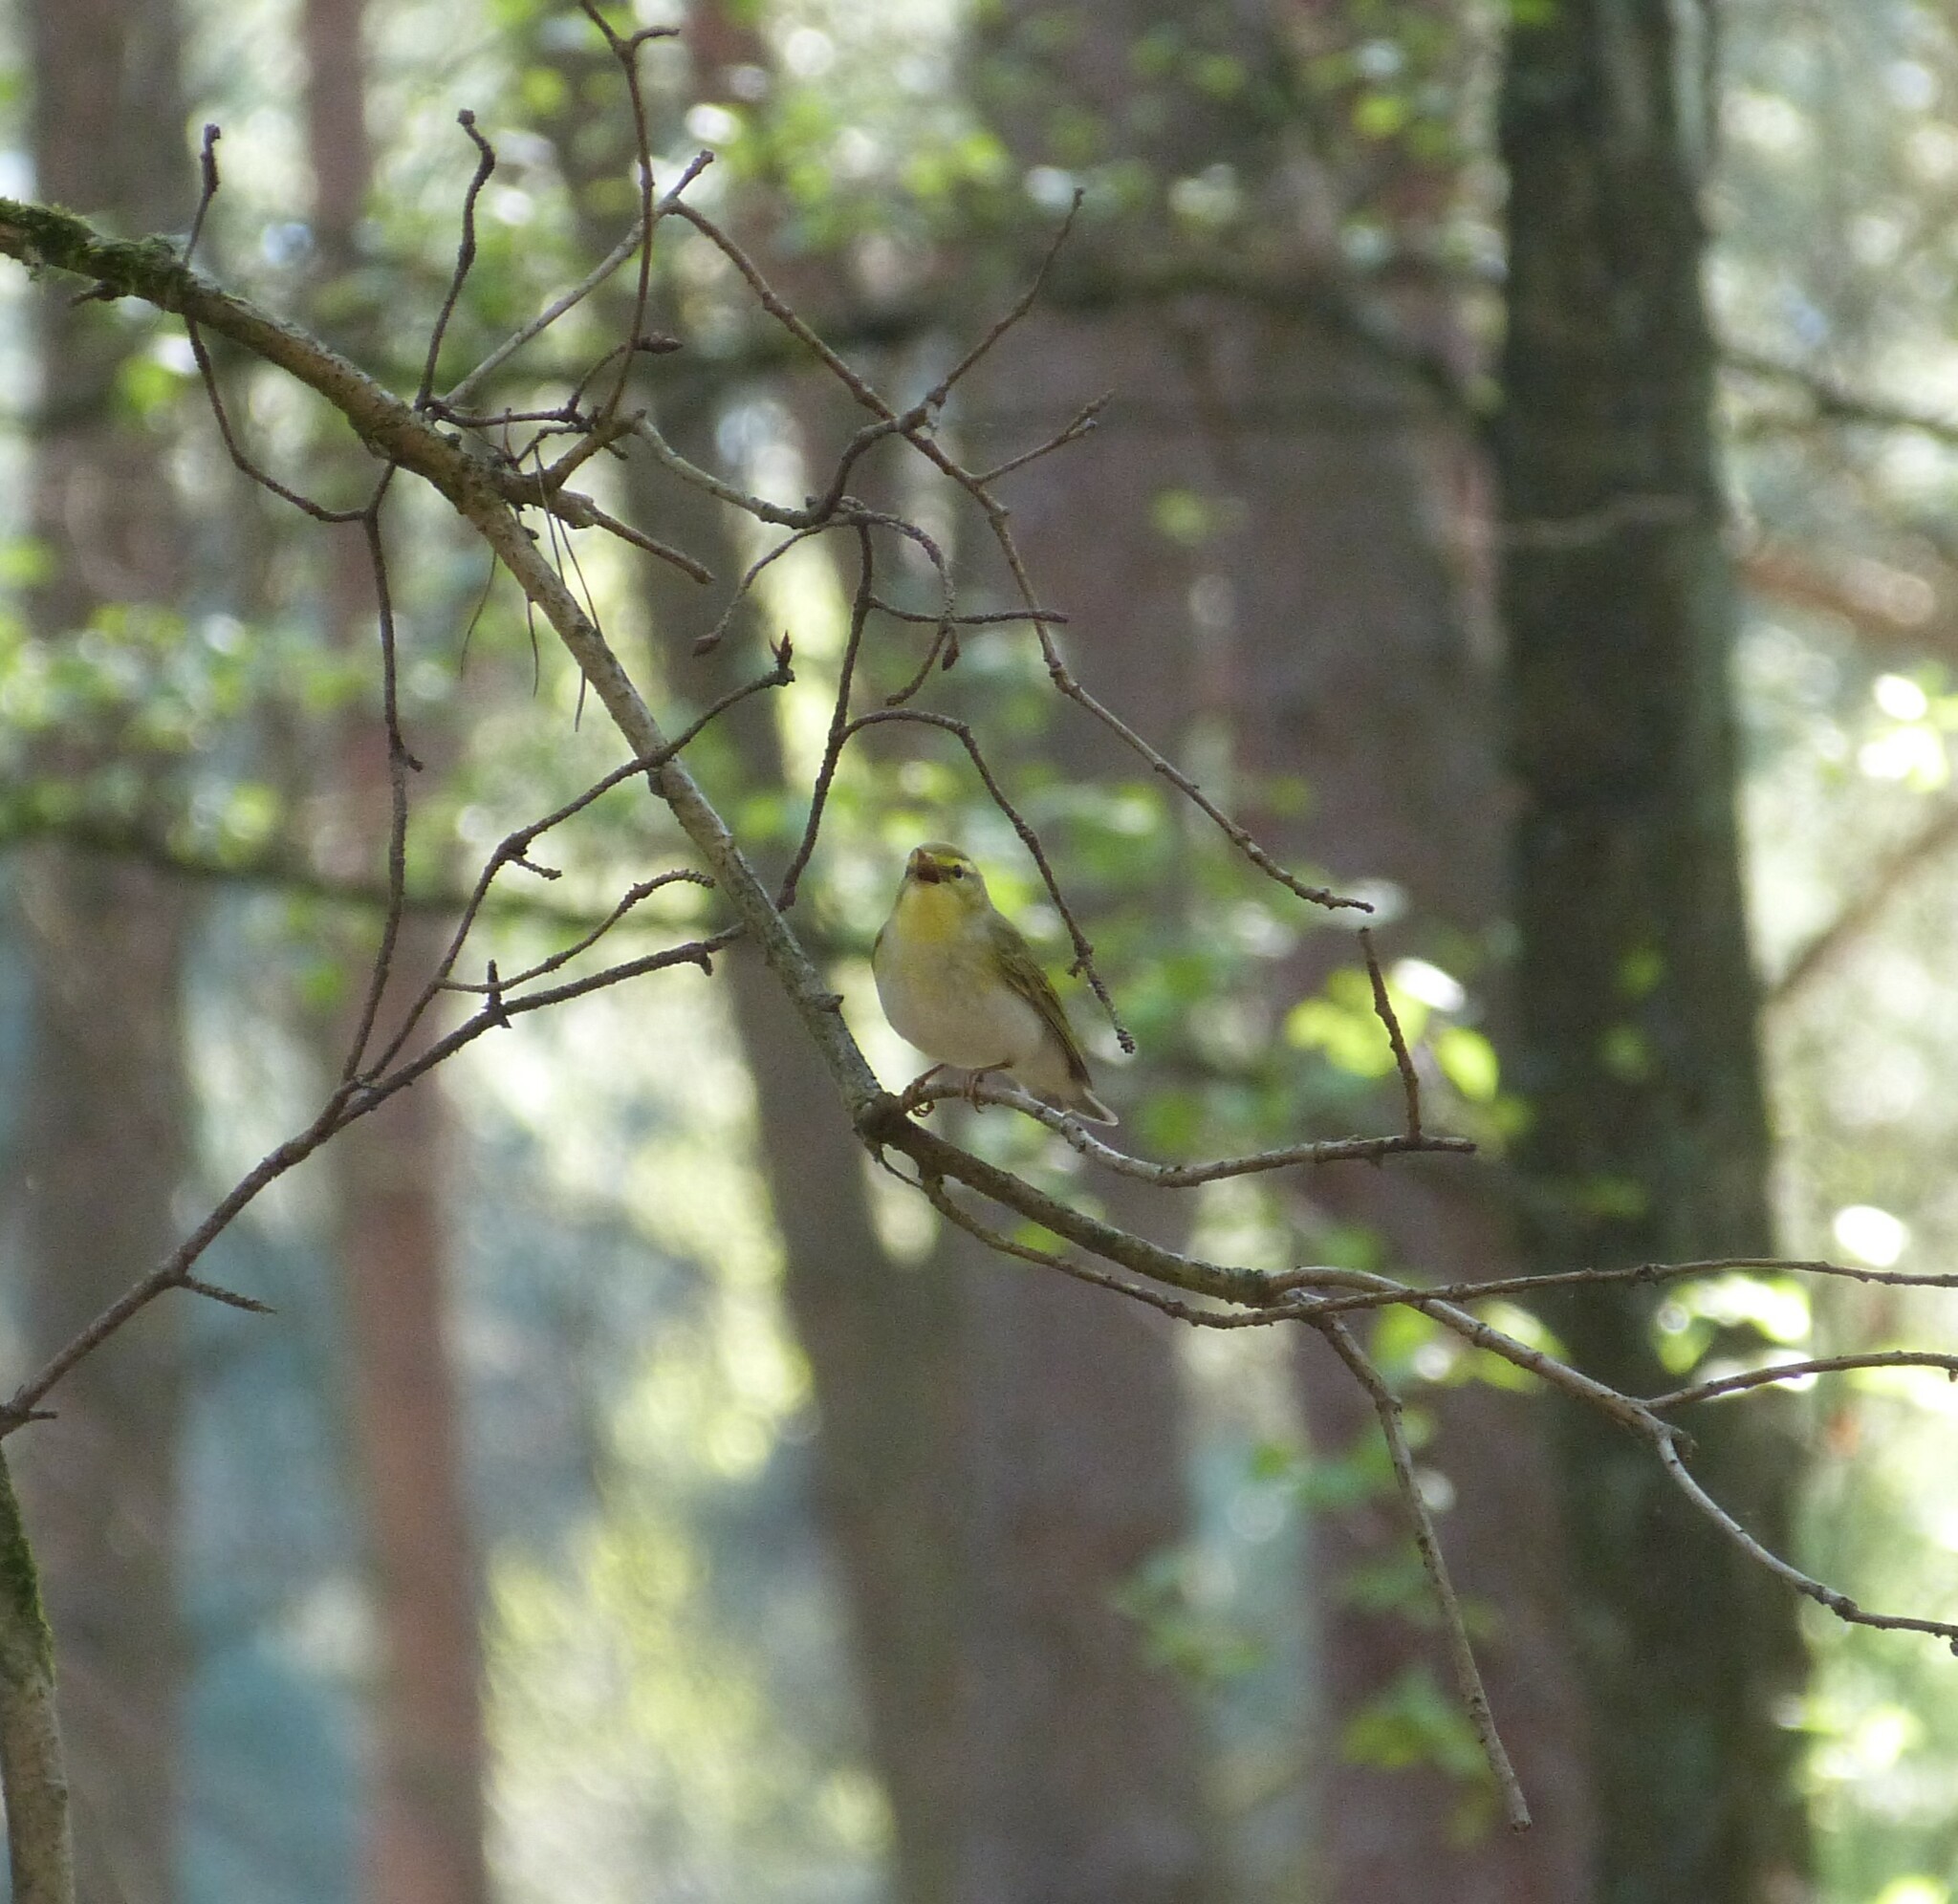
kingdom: Animalia
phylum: Chordata
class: Aves
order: Passeriformes
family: Phylloscopidae
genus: Phylloscopus
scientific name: Phylloscopus sibillatrix
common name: Wood warbler
